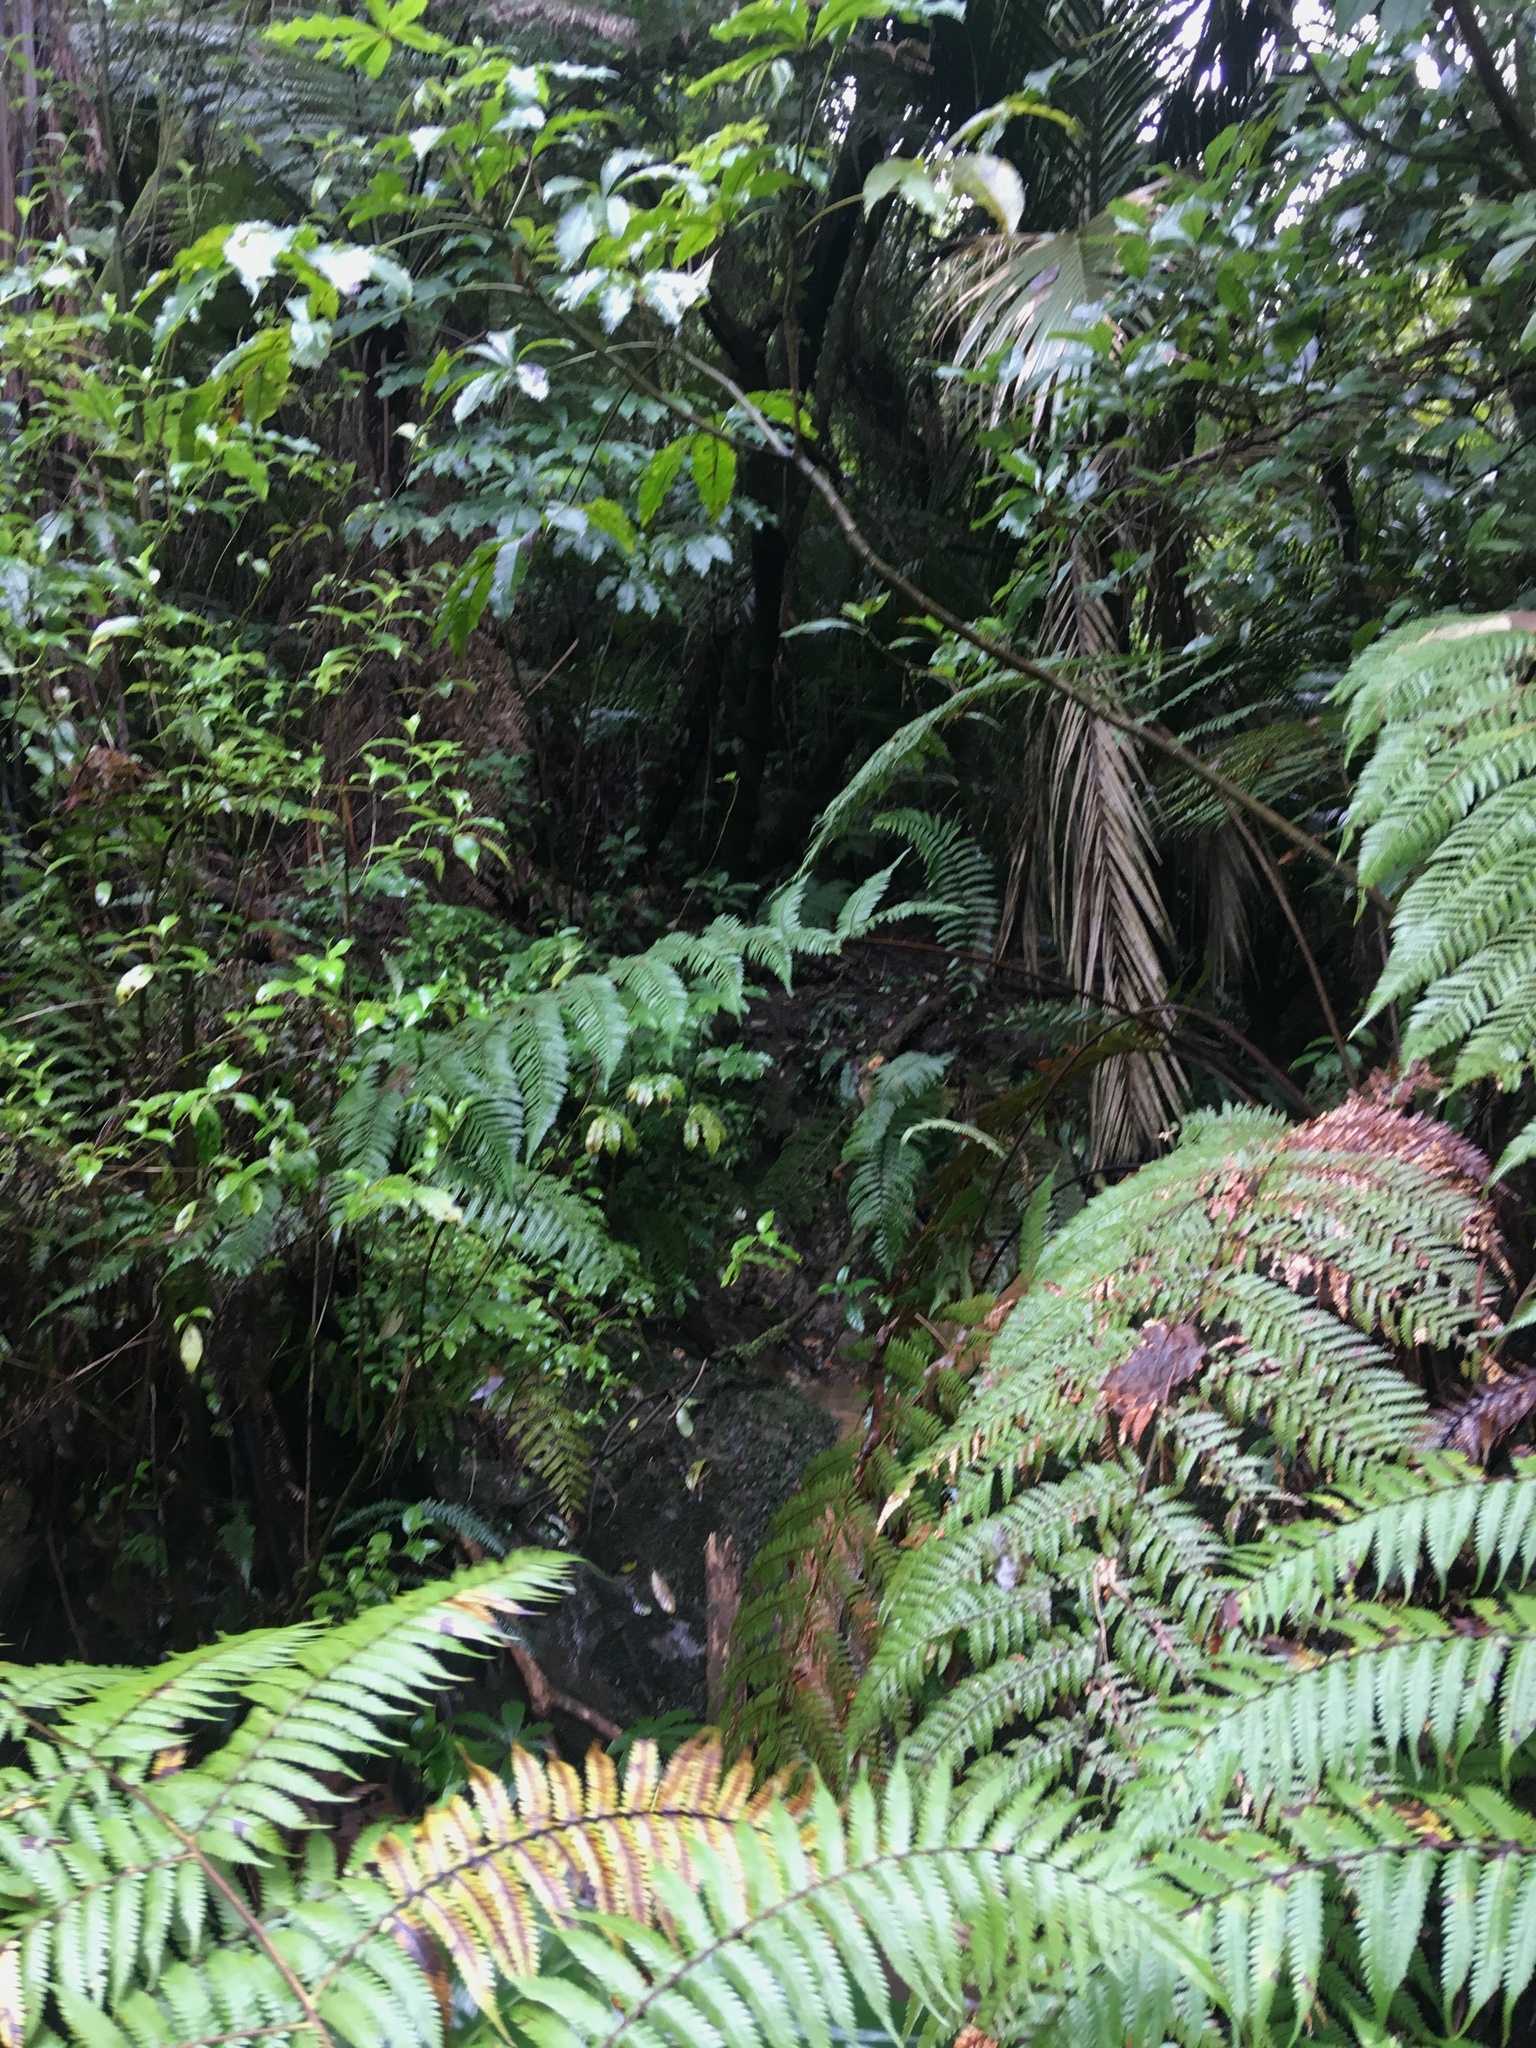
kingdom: Plantae
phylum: Tracheophyta
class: Magnoliopsida
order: Gentianales
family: Loganiaceae
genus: Geniostoma
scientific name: Geniostoma ligustrifolium
